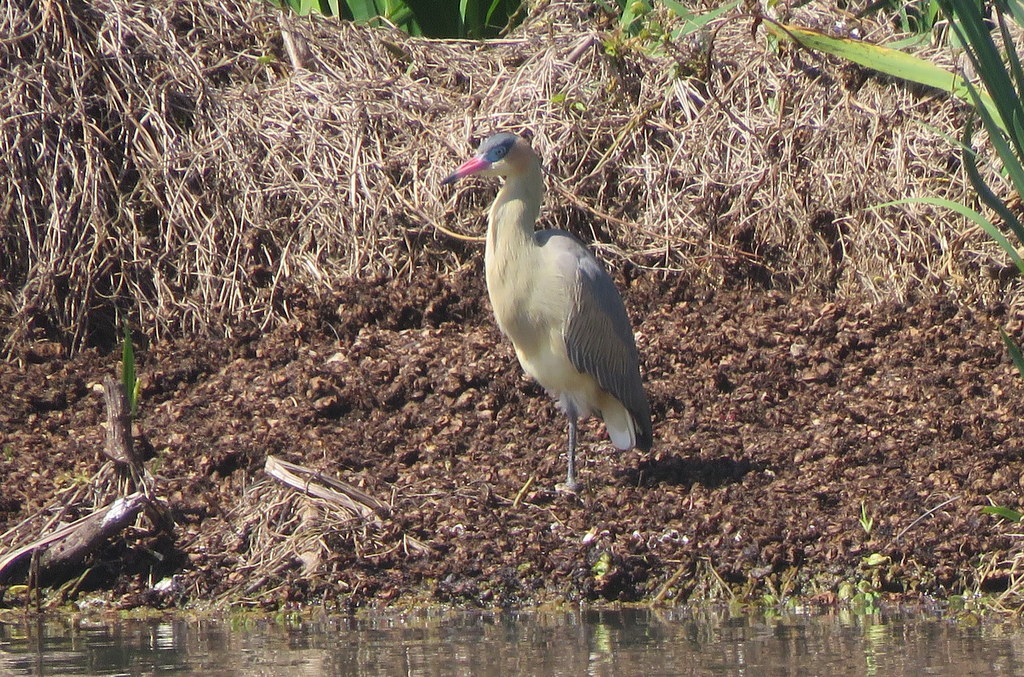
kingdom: Animalia
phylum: Chordata
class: Aves
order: Pelecaniformes
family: Ardeidae
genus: Syrigma
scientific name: Syrigma sibilatrix
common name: Whistling heron
